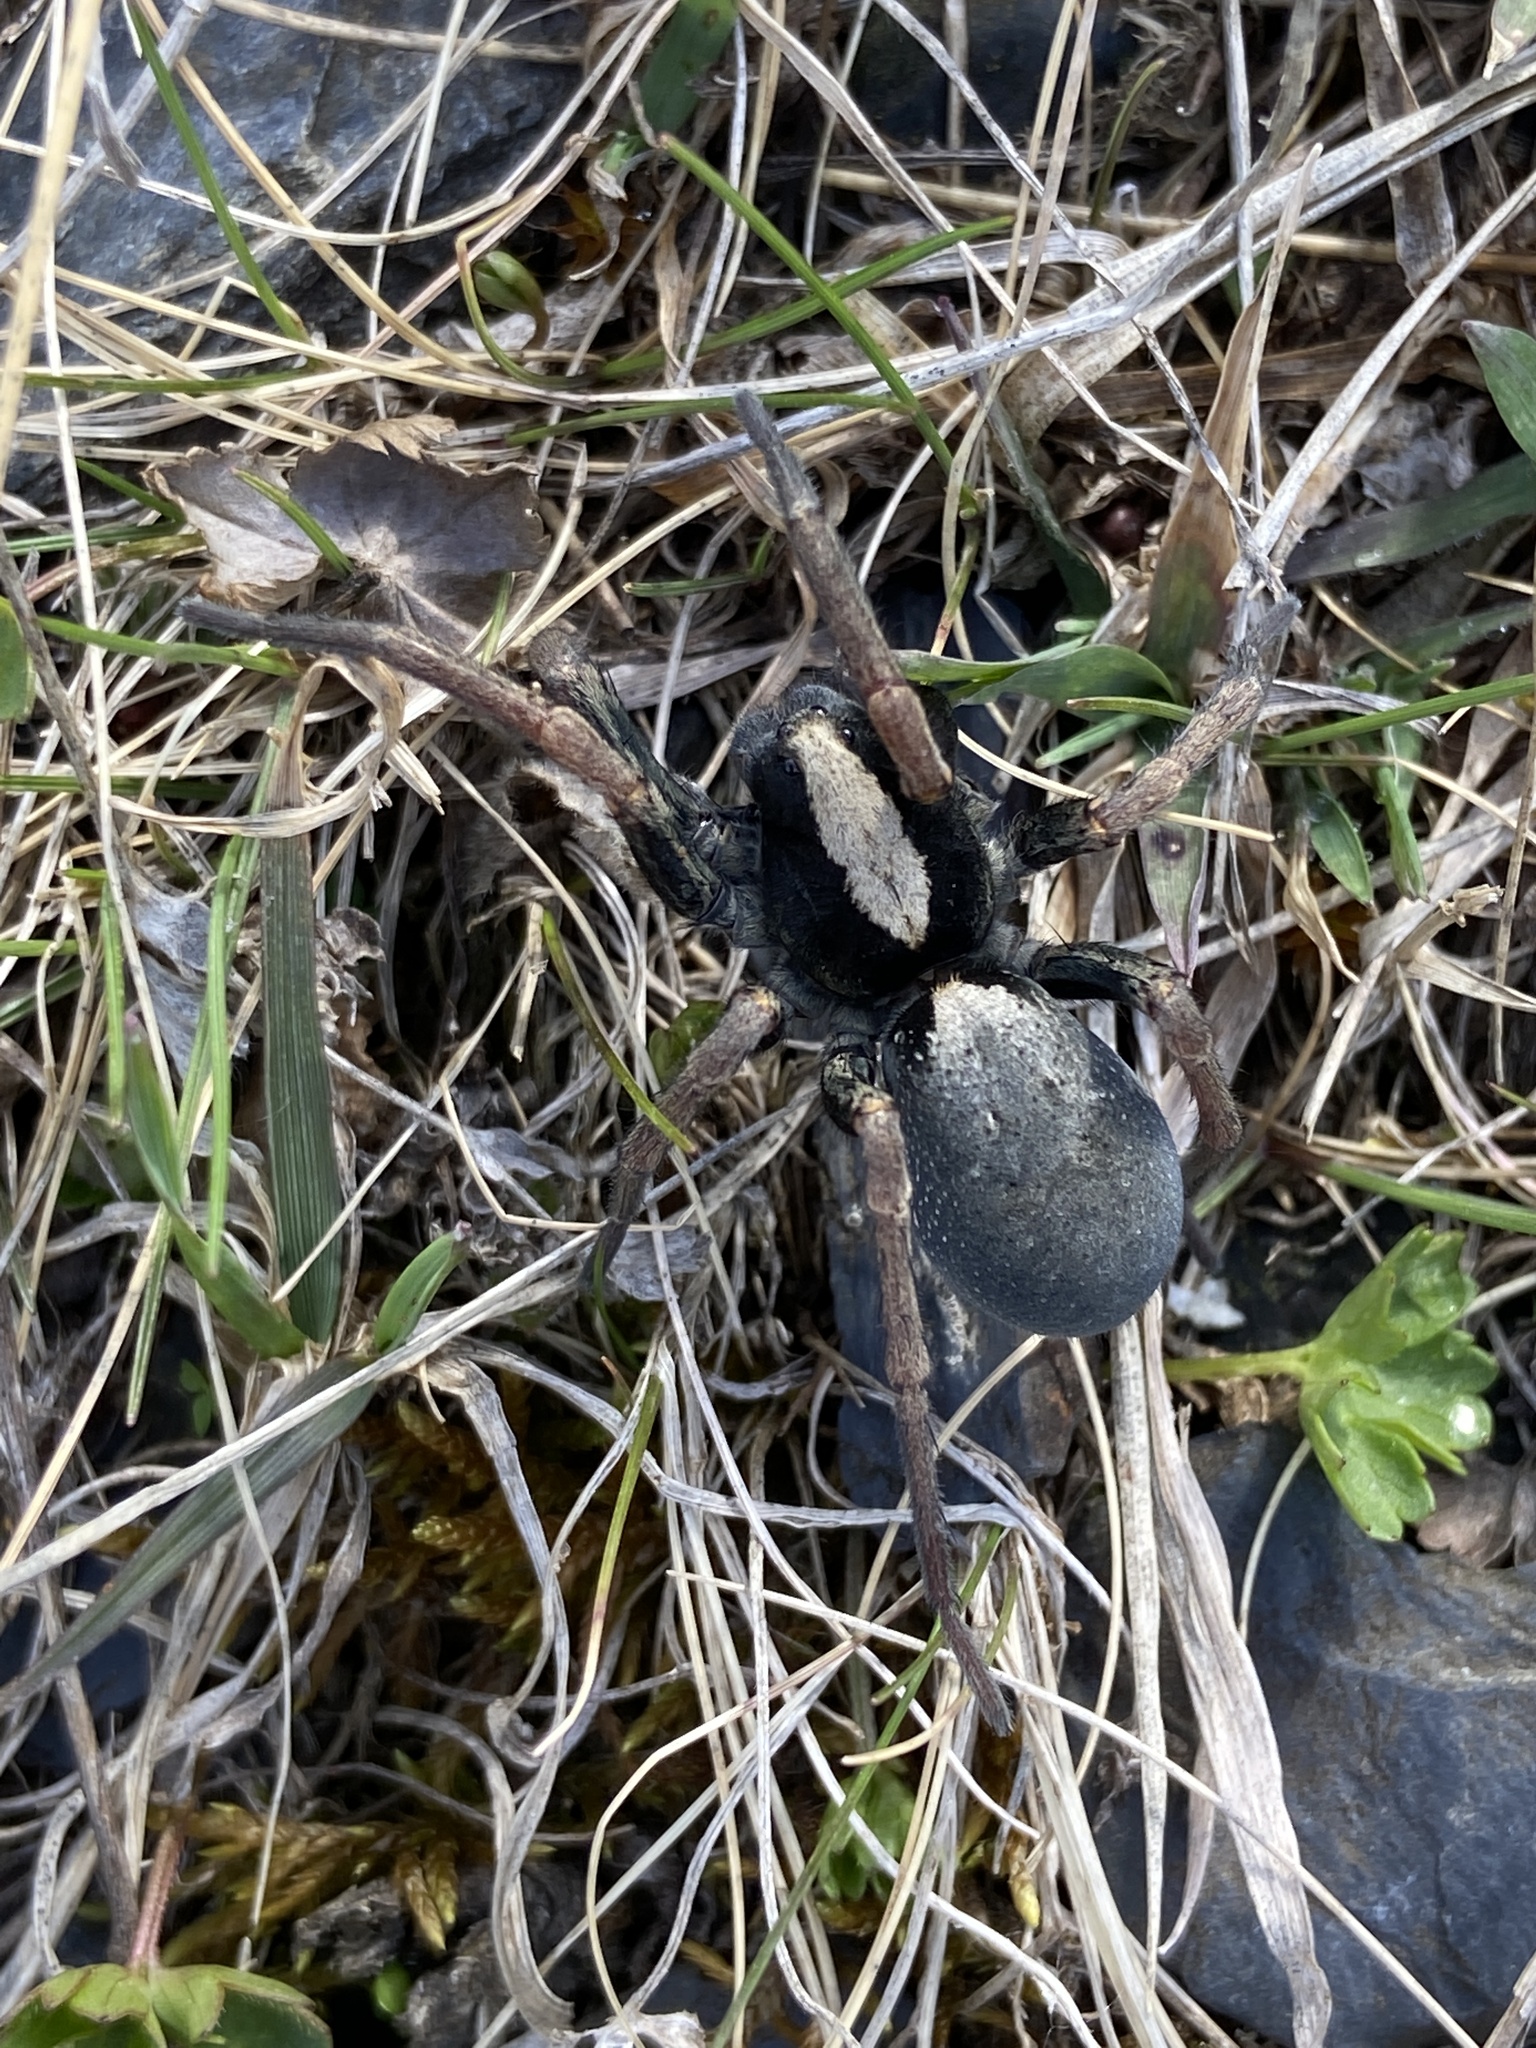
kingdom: Animalia
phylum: Arthropoda
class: Arachnida
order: Araneae
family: Lycosidae
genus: Geolycosa
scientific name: Geolycosa charitonovi
